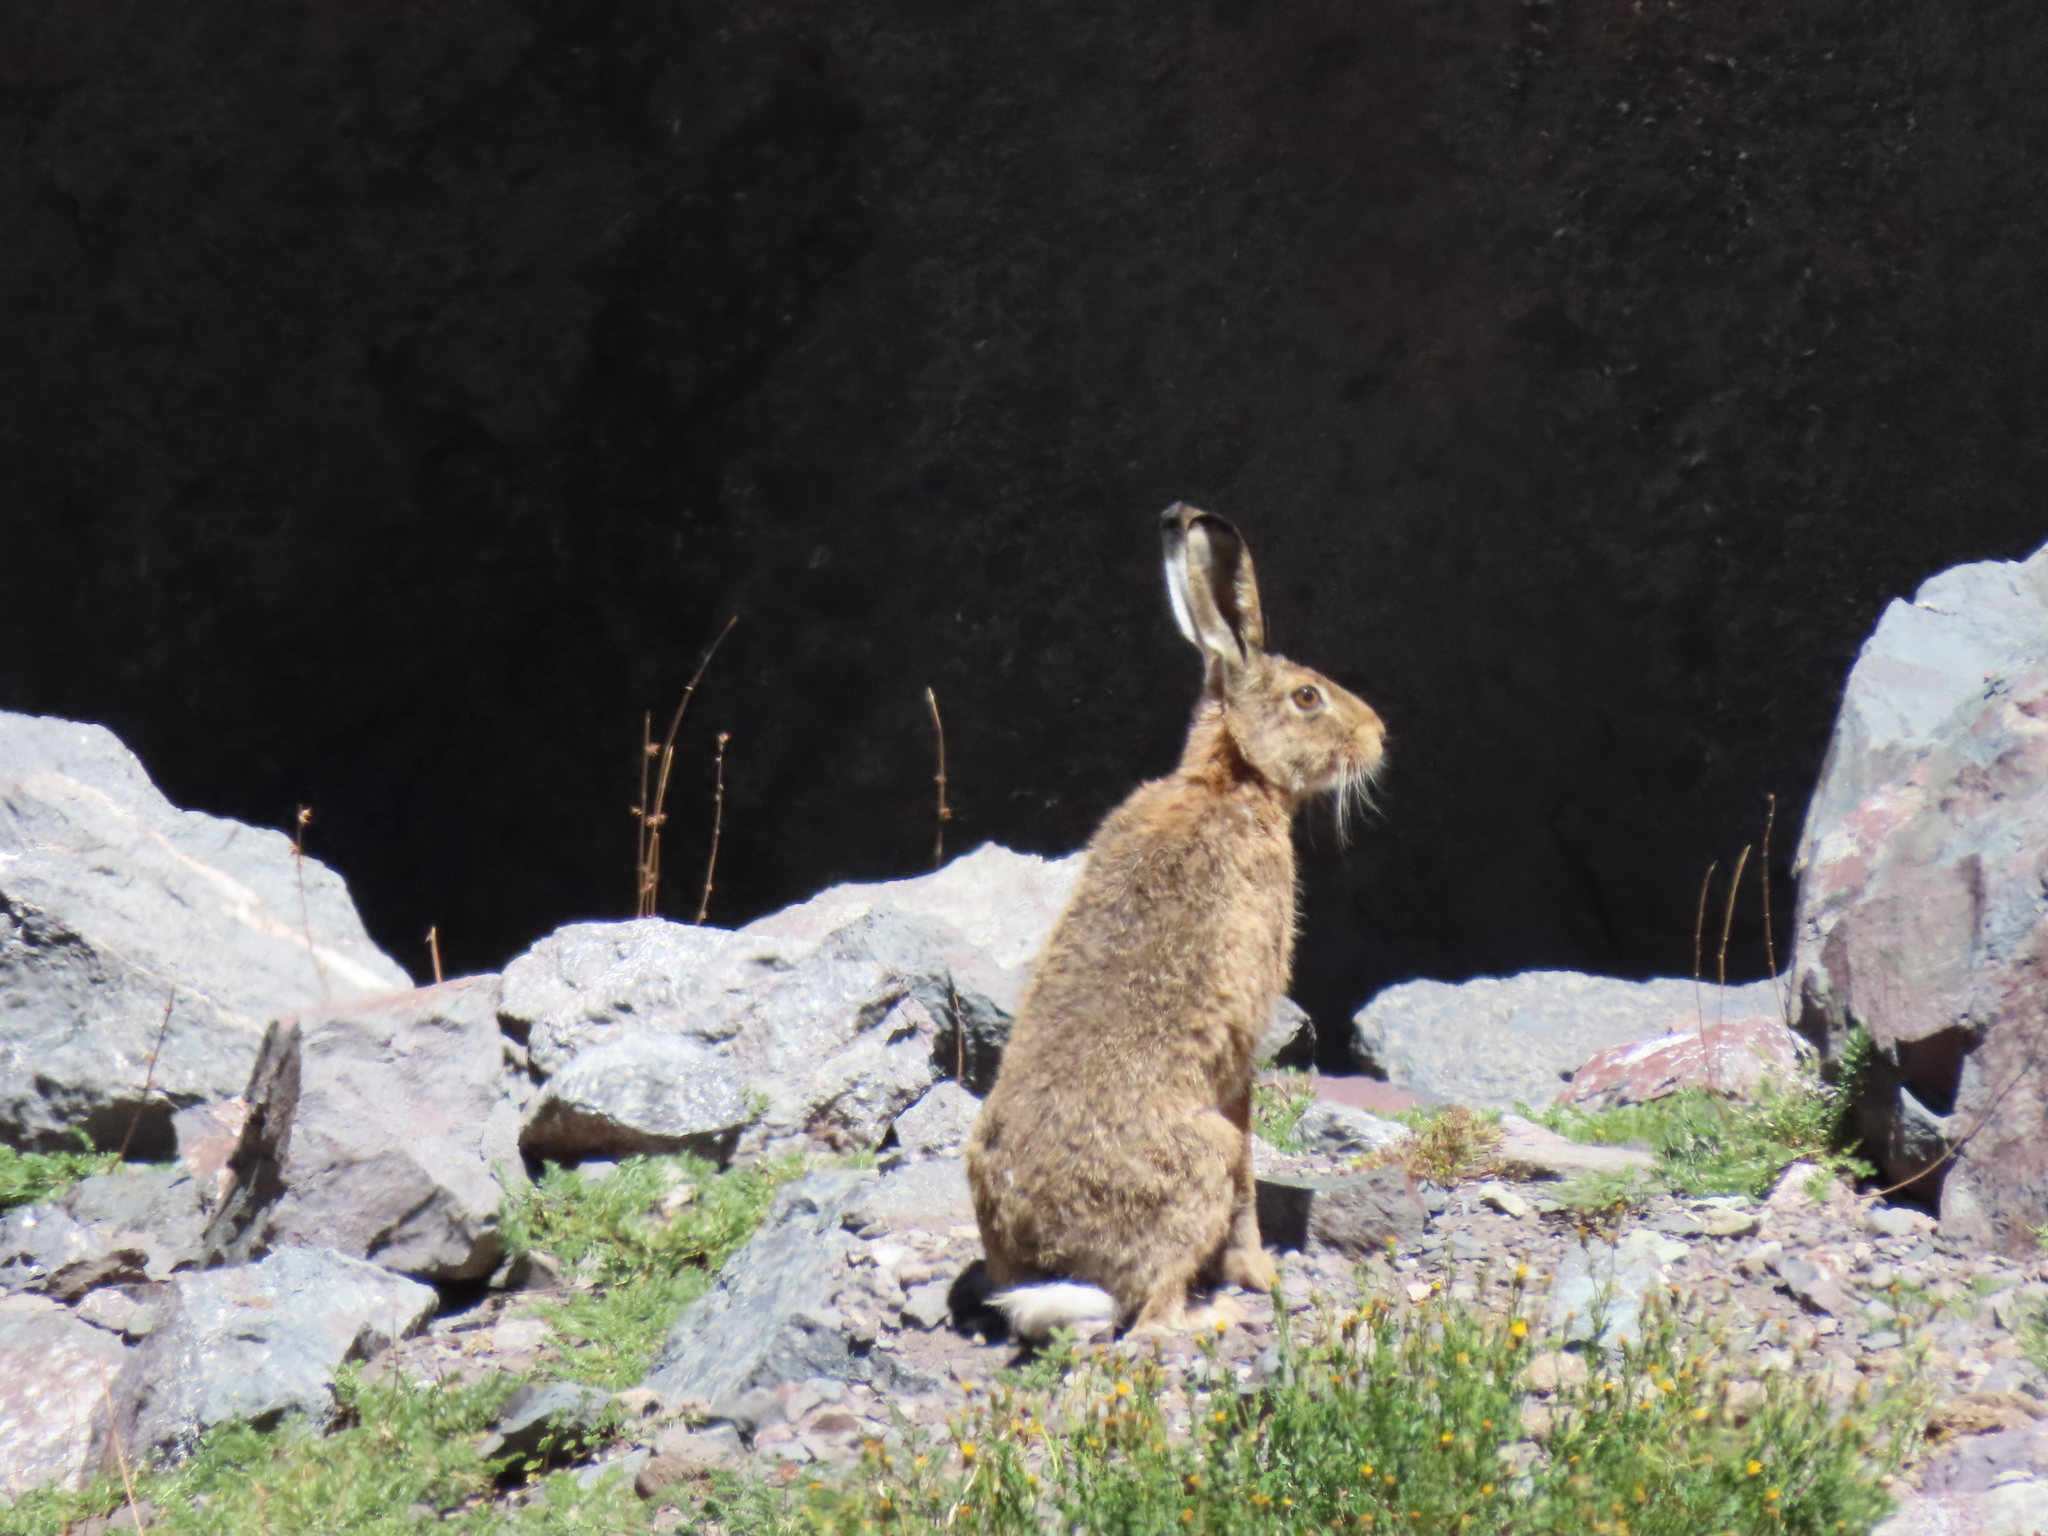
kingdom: Animalia
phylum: Chordata
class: Mammalia
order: Lagomorpha
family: Leporidae
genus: Lepus
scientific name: Lepus europaeus
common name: European hare
